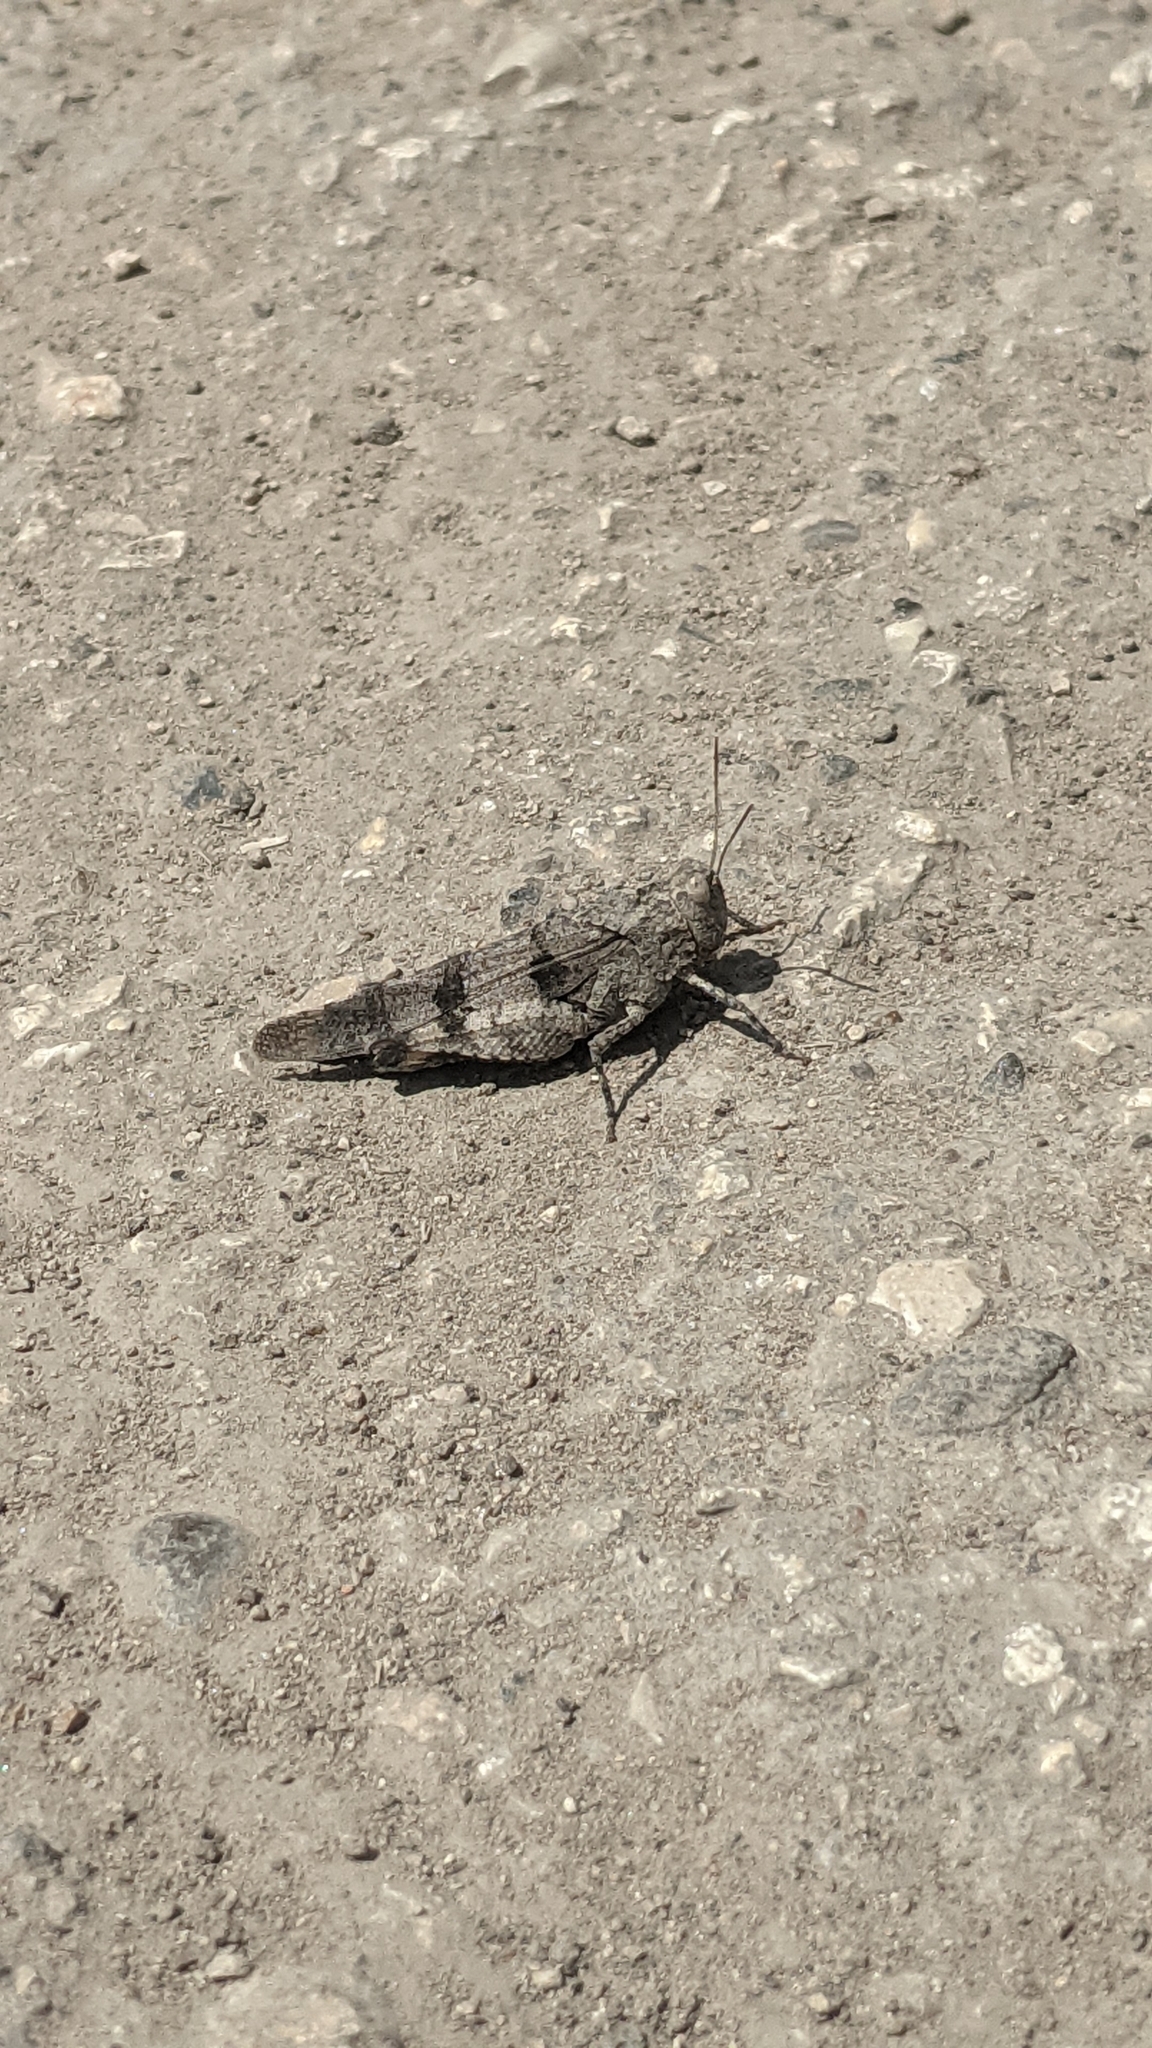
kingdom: Animalia
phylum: Arthropoda
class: Insecta
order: Orthoptera
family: Acrididae
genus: Oedipoda
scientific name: Oedipoda caerulescens
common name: Blue-winged grasshopper
